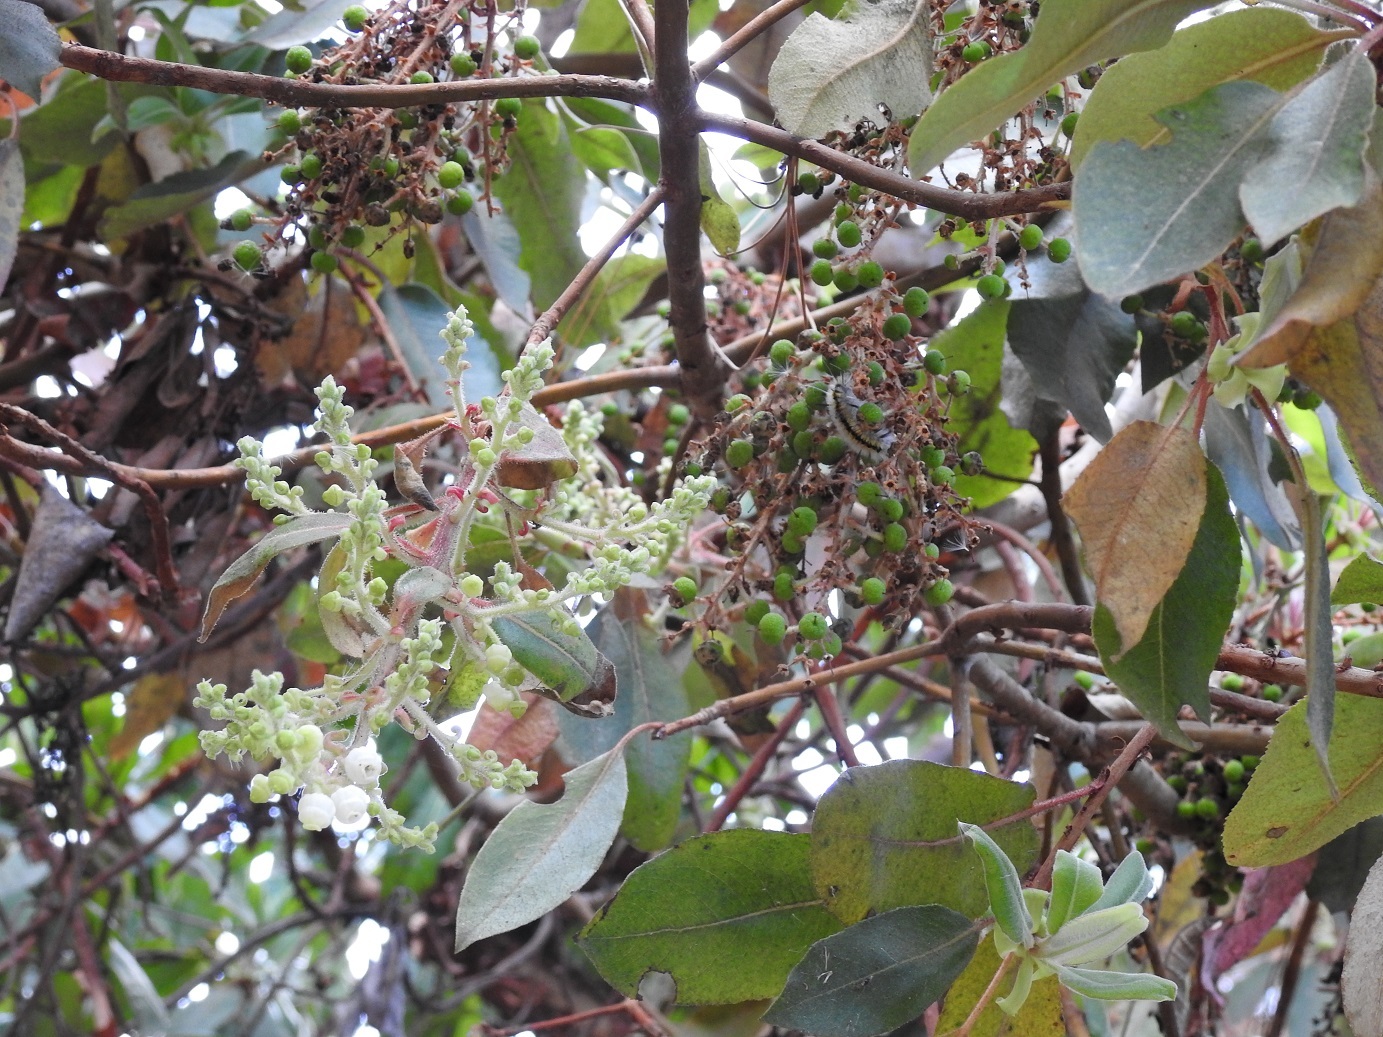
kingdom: Plantae
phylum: Tracheophyta
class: Magnoliopsida
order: Ericales
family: Ericaceae
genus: Arbutus
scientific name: Arbutus xalapensis
